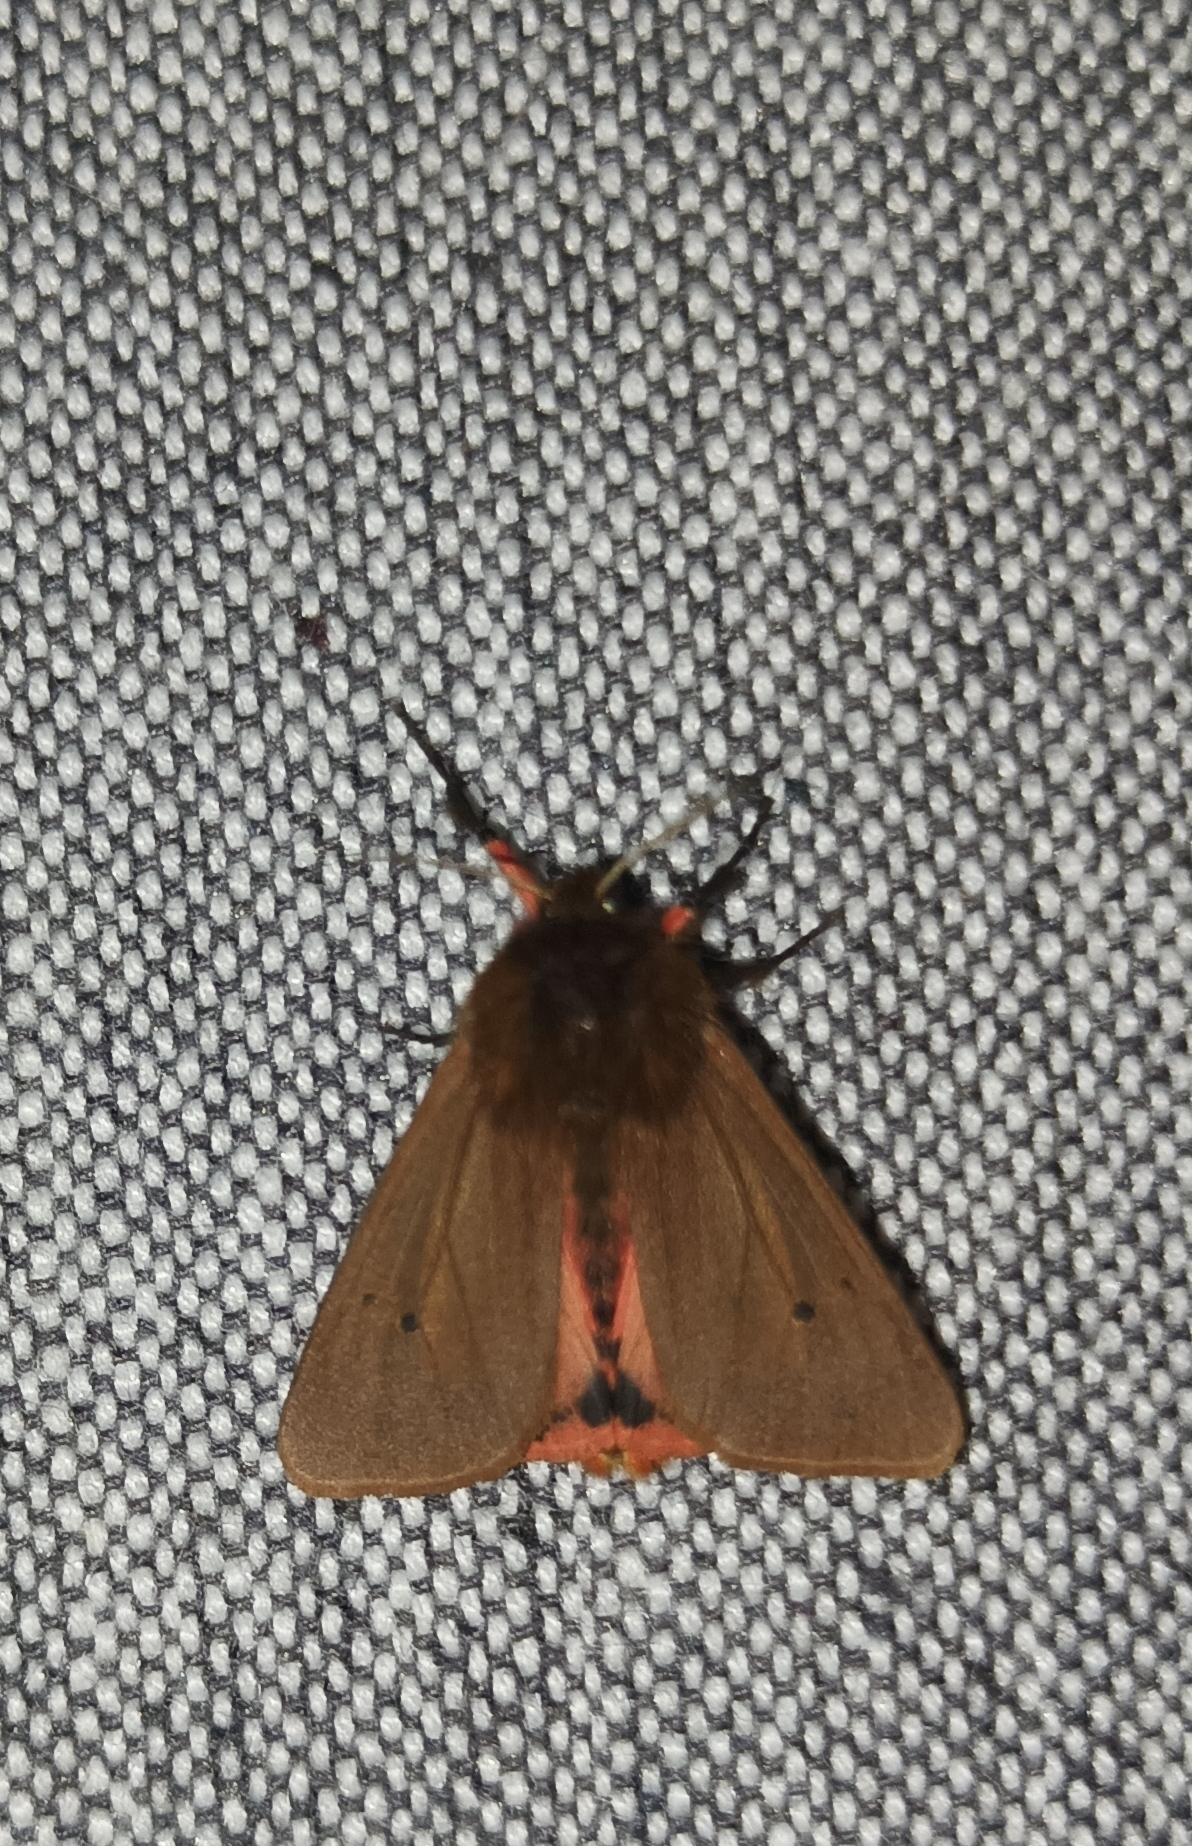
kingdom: Animalia
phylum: Arthropoda
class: Insecta
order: Lepidoptera
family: Erebidae
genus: Phragmatobia
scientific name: Phragmatobia fuliginosa
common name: Ruby tiger
